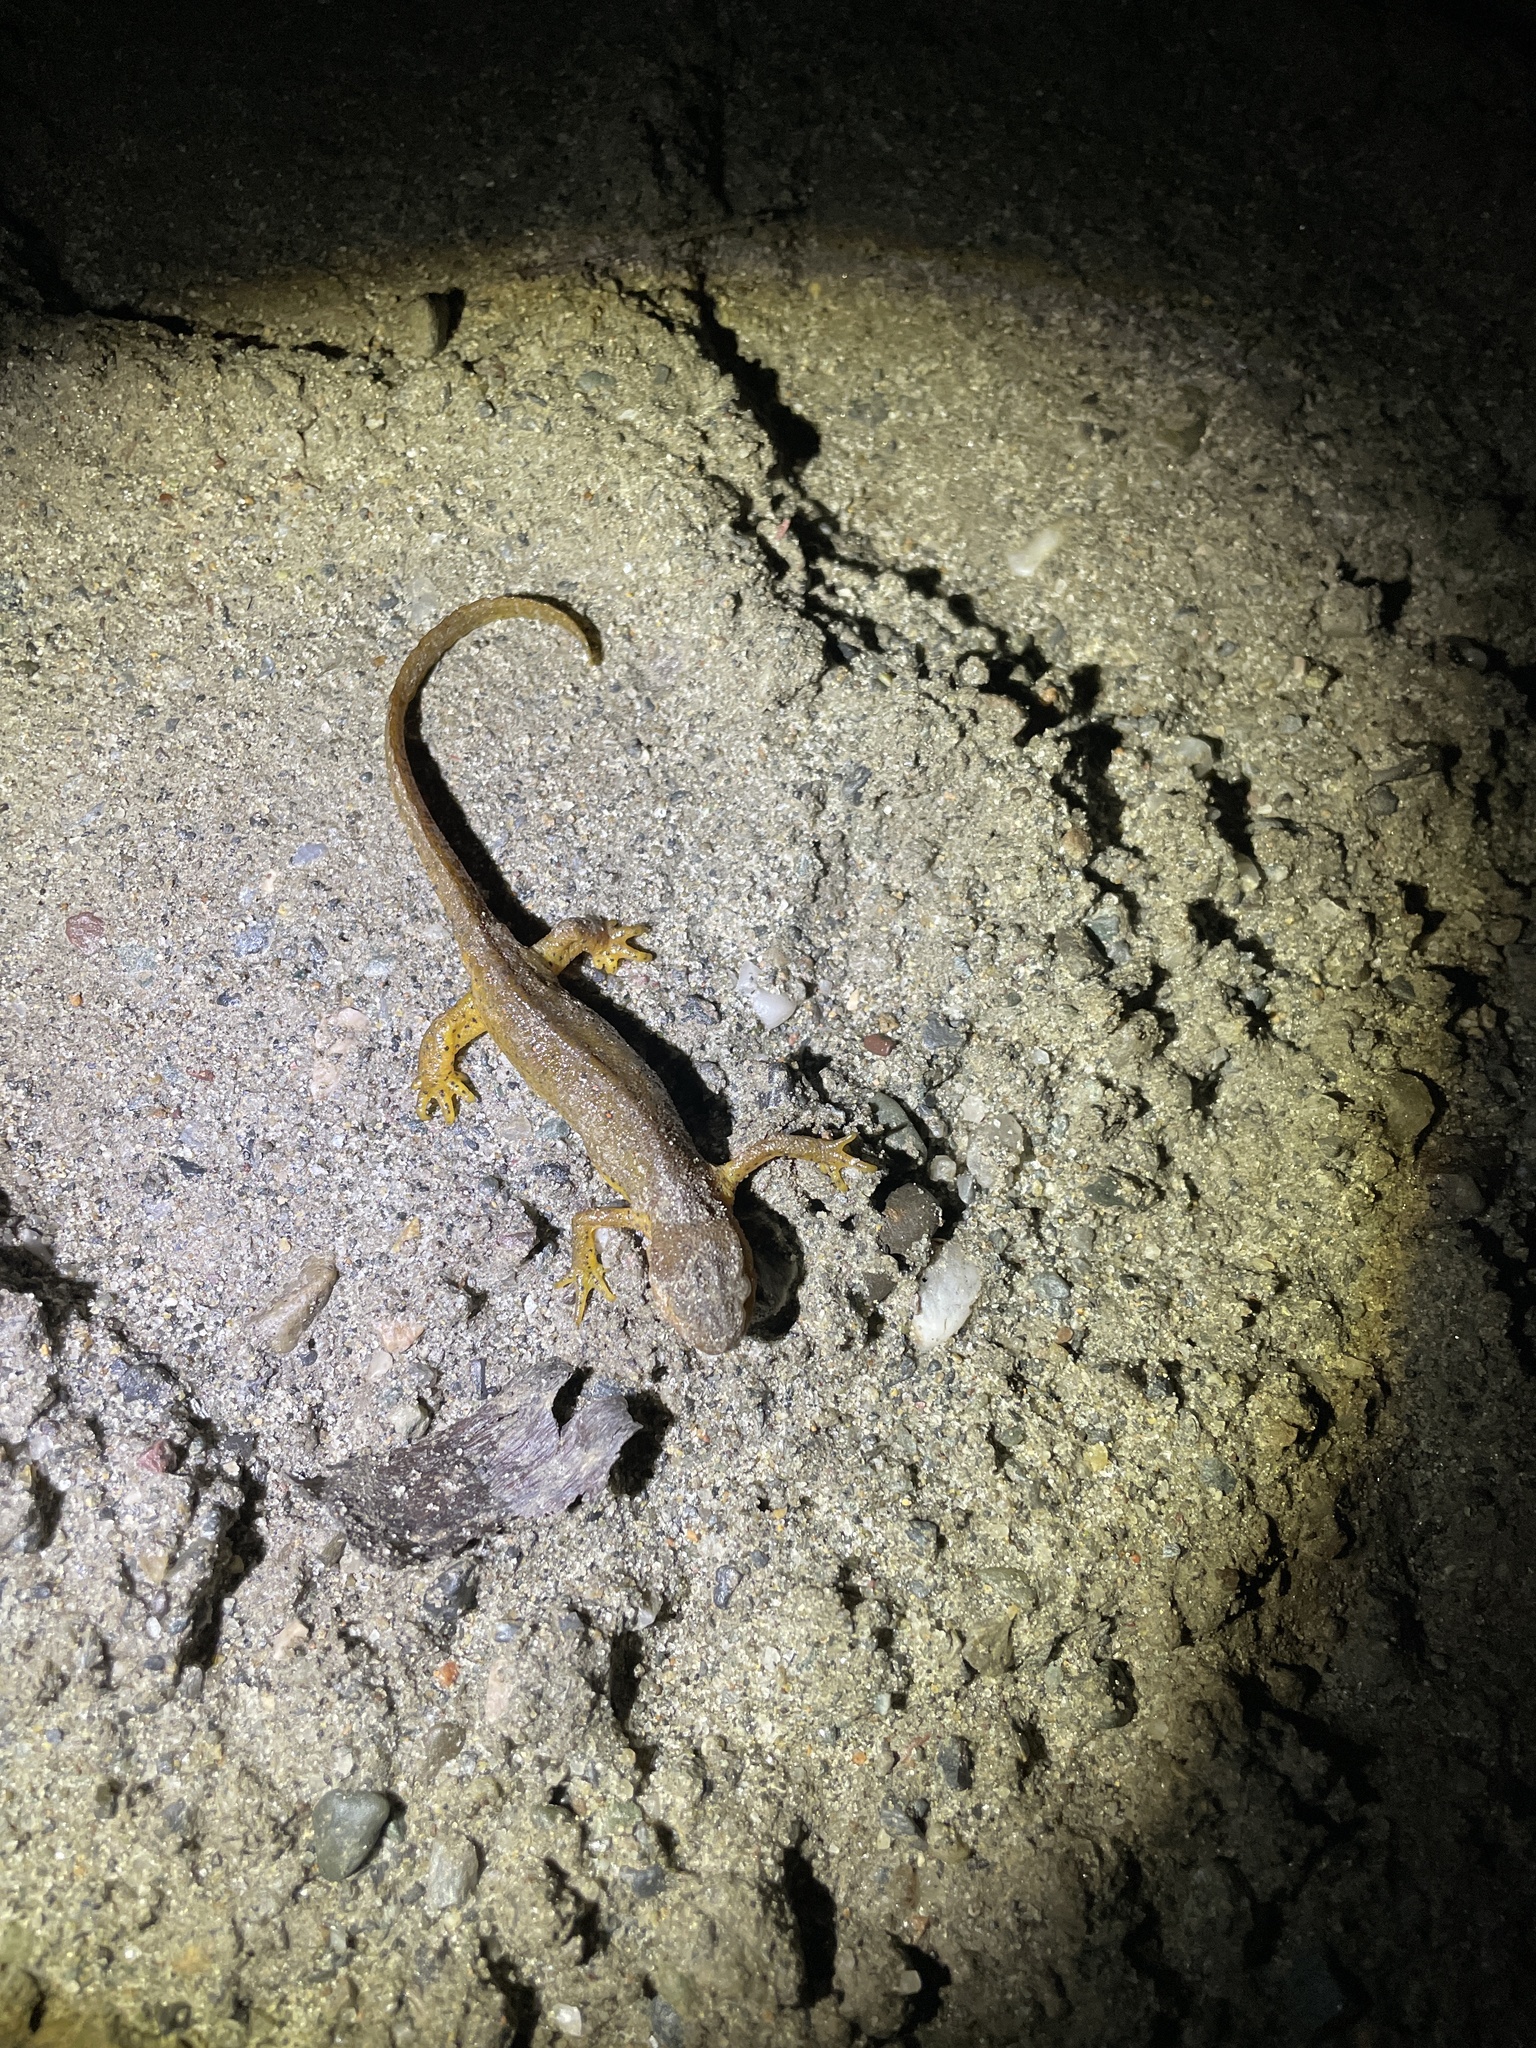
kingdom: Animalia
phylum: Chordata
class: Amphibia
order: Caudata
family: Salamandridae
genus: Notophthalmus
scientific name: Notophthalmus viridescens
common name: Eastern newt
